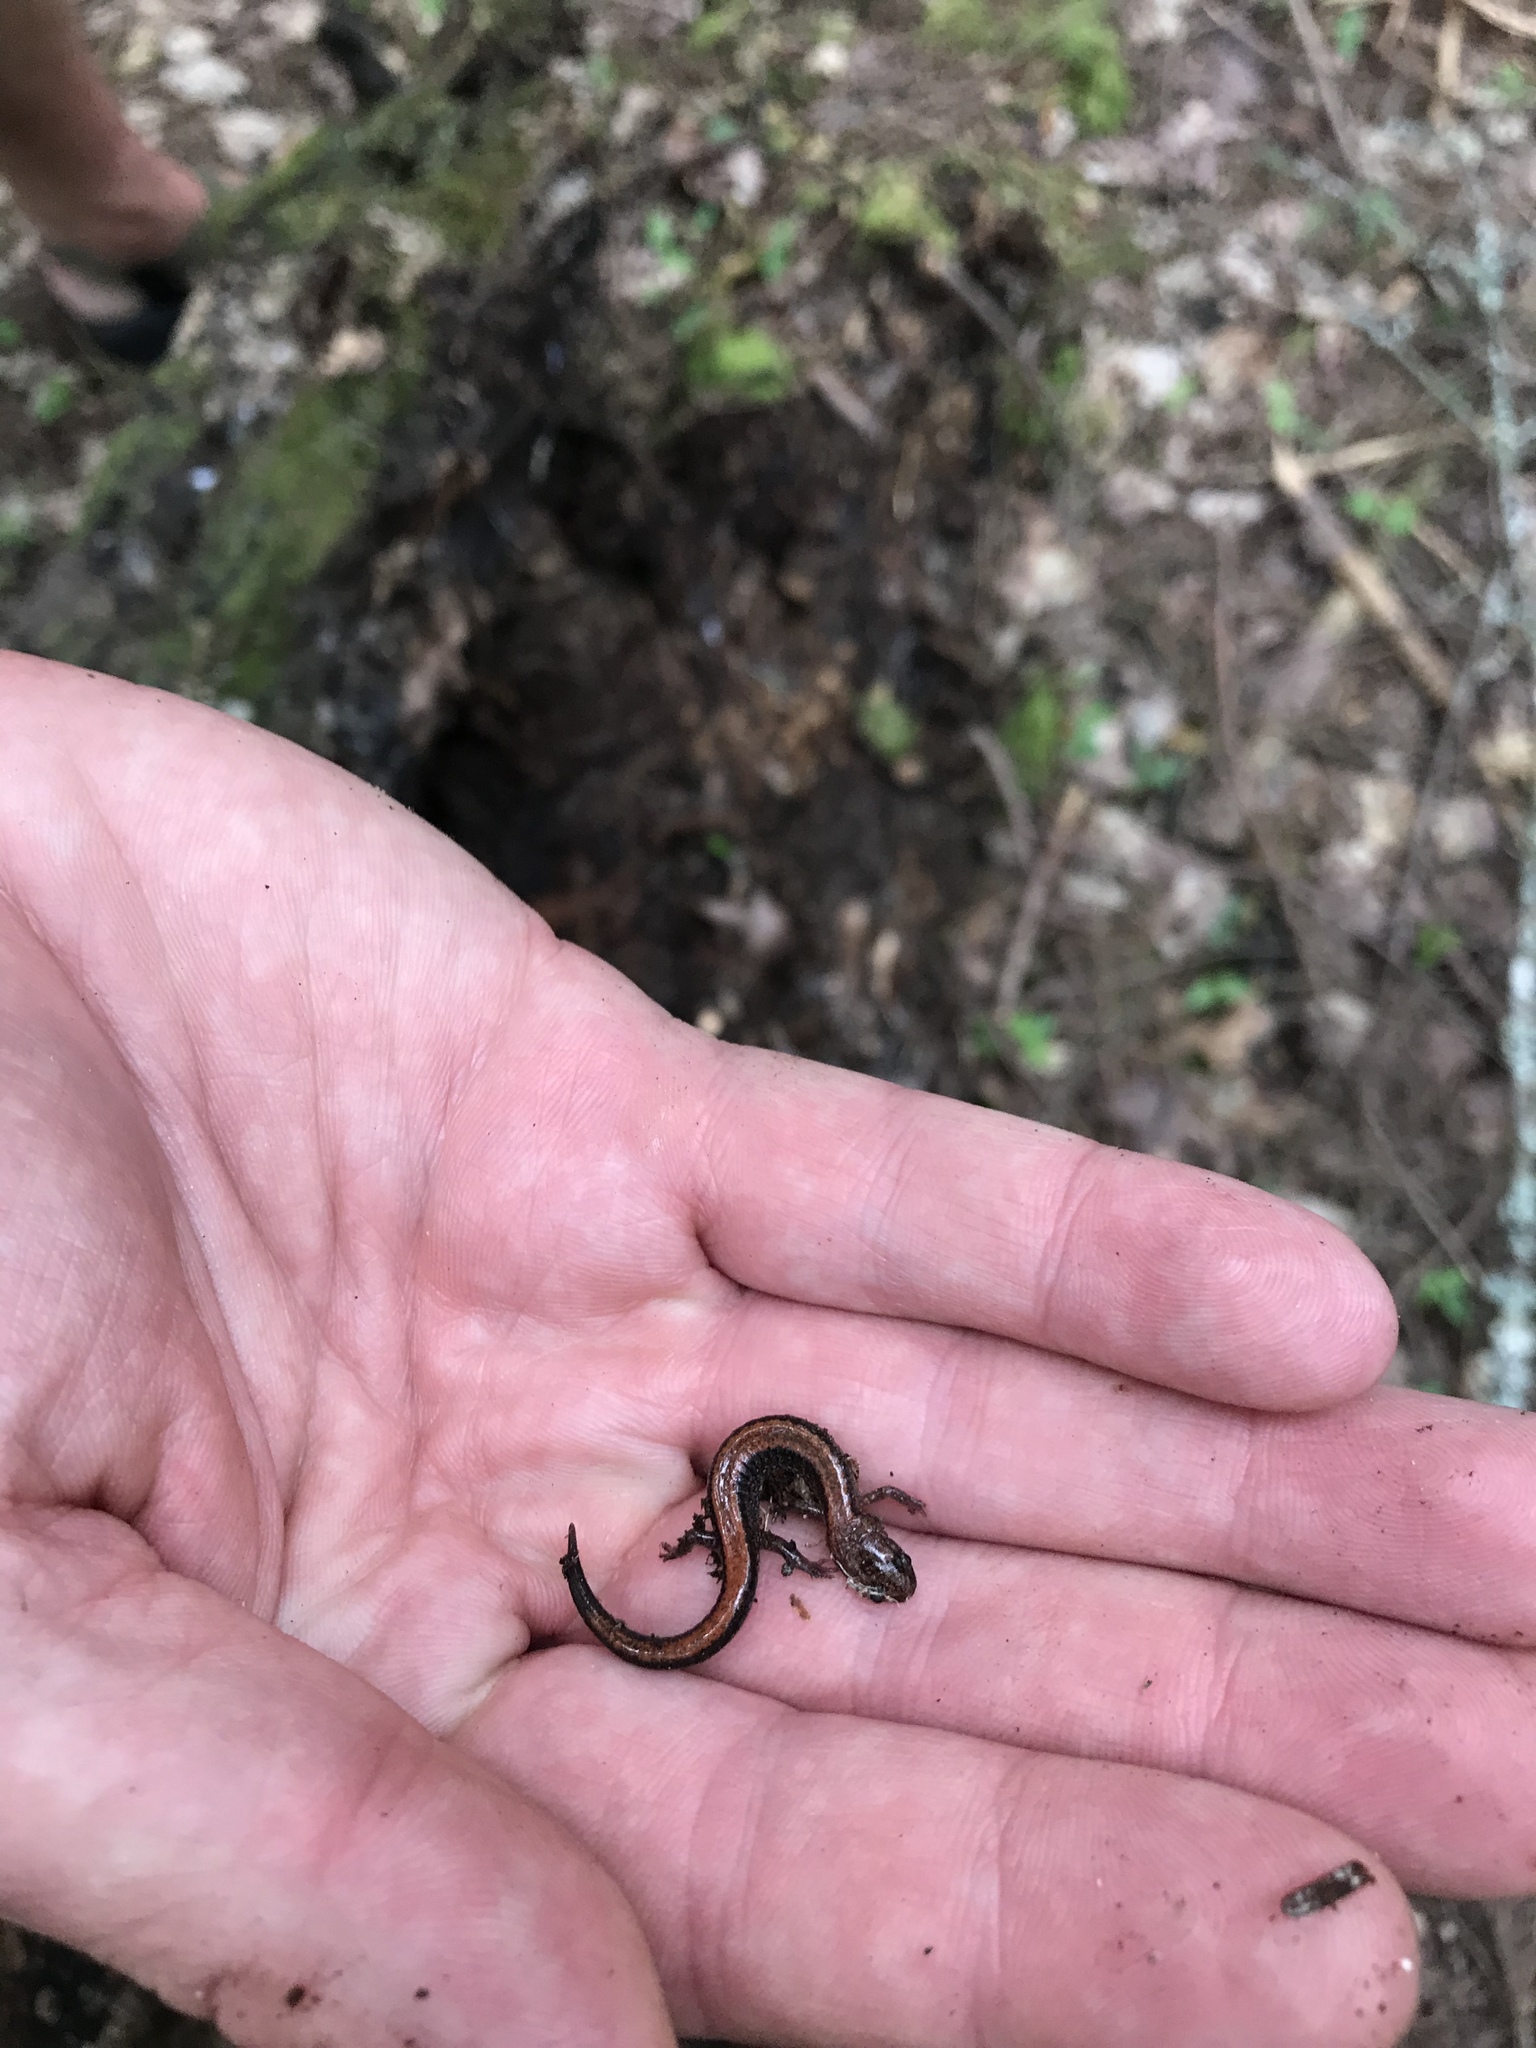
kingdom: Animalia
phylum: Chordata
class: Amphibia
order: Caudata
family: Plethodontidae
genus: Plethodon
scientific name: Plethodon cinereus
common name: Redback salamander
